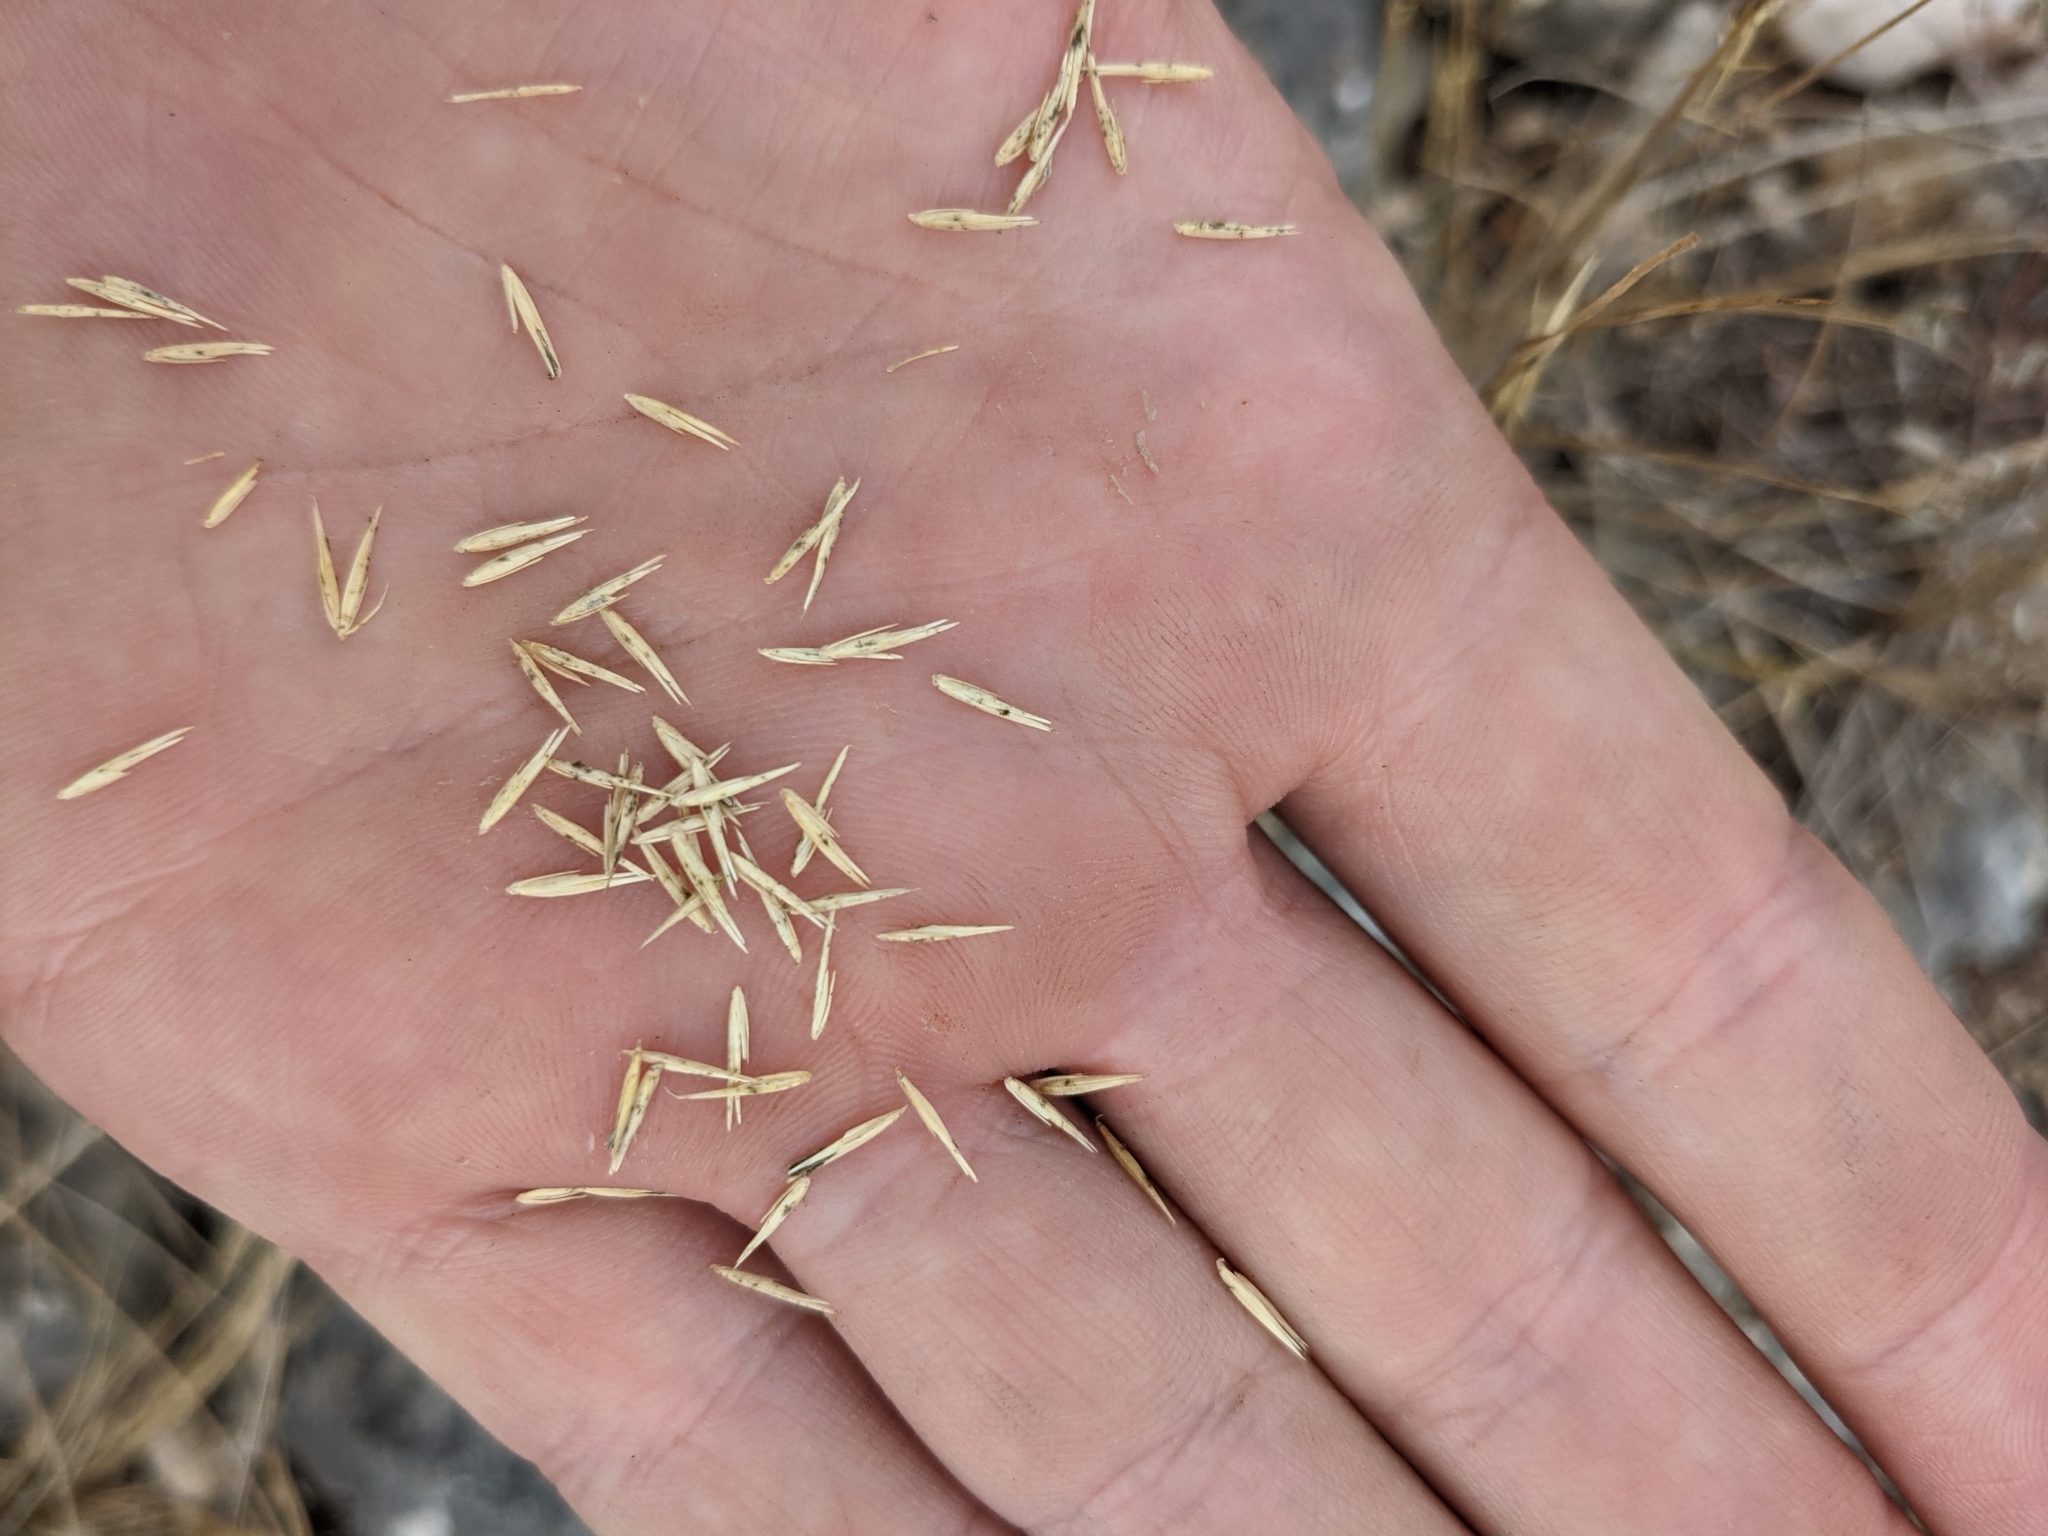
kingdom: Plantae
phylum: Tracheophyta
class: Liliopsida
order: Poales
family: Poaceae
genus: Bouteloua
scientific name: Bouteloua uniflora
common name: Neally's grama
